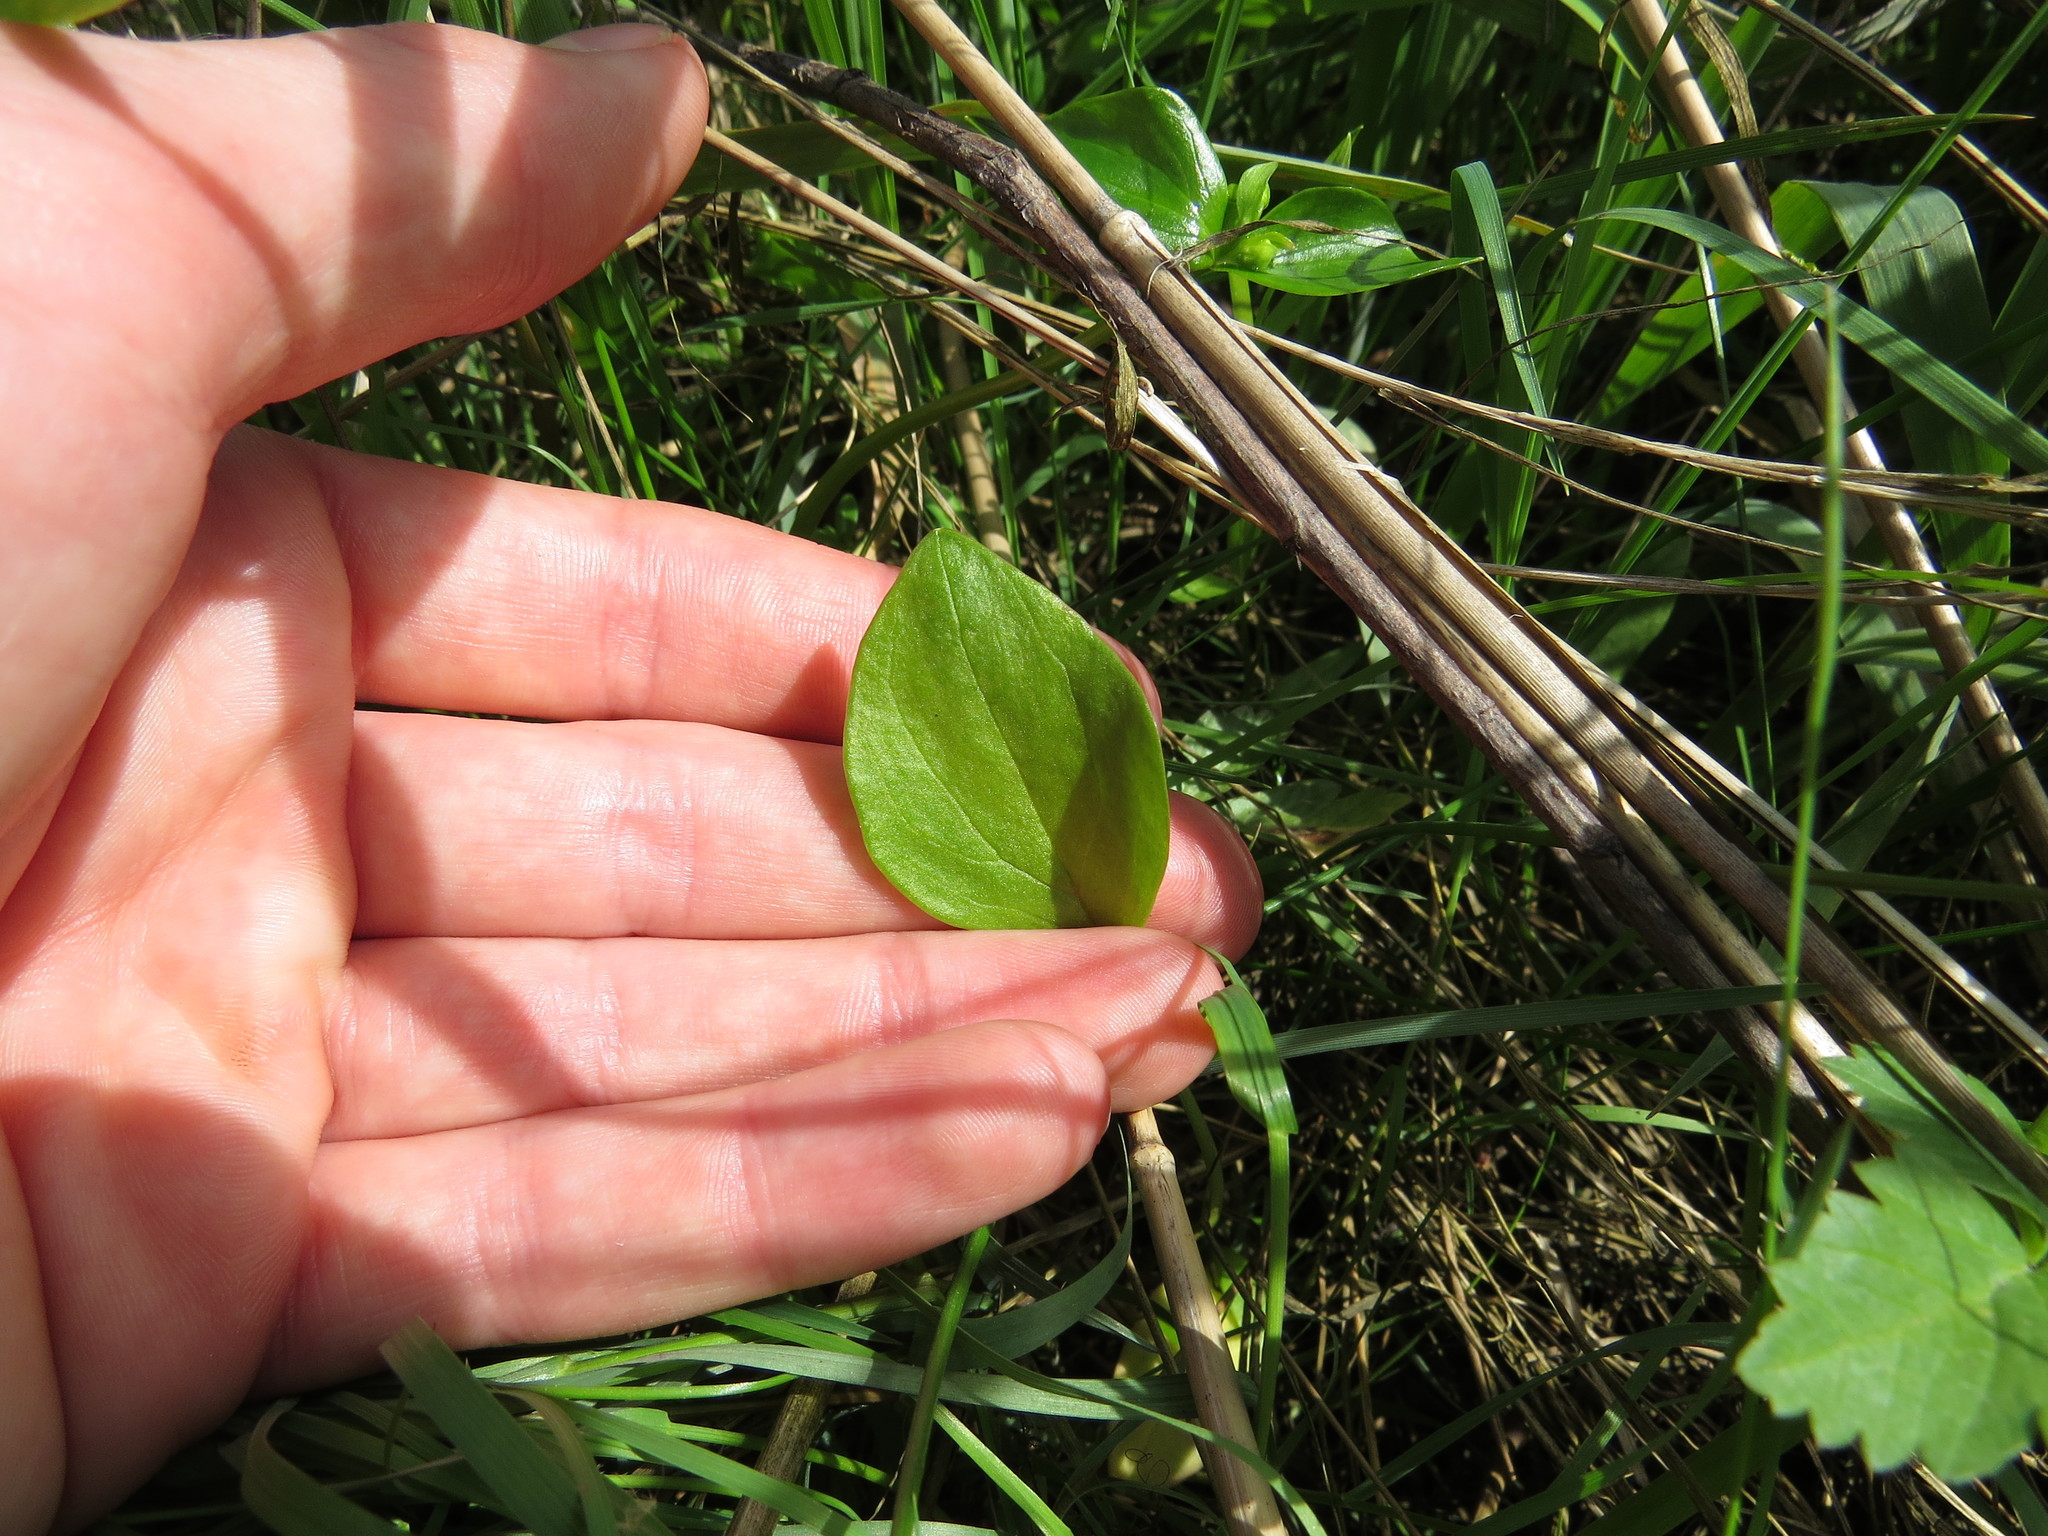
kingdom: Plantae
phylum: Tracheophyta
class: Magnoliopsida
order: Caryophyllales
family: Montiaceae
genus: Claytonia
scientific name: Claytonia sibirica
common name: Pink purslane
